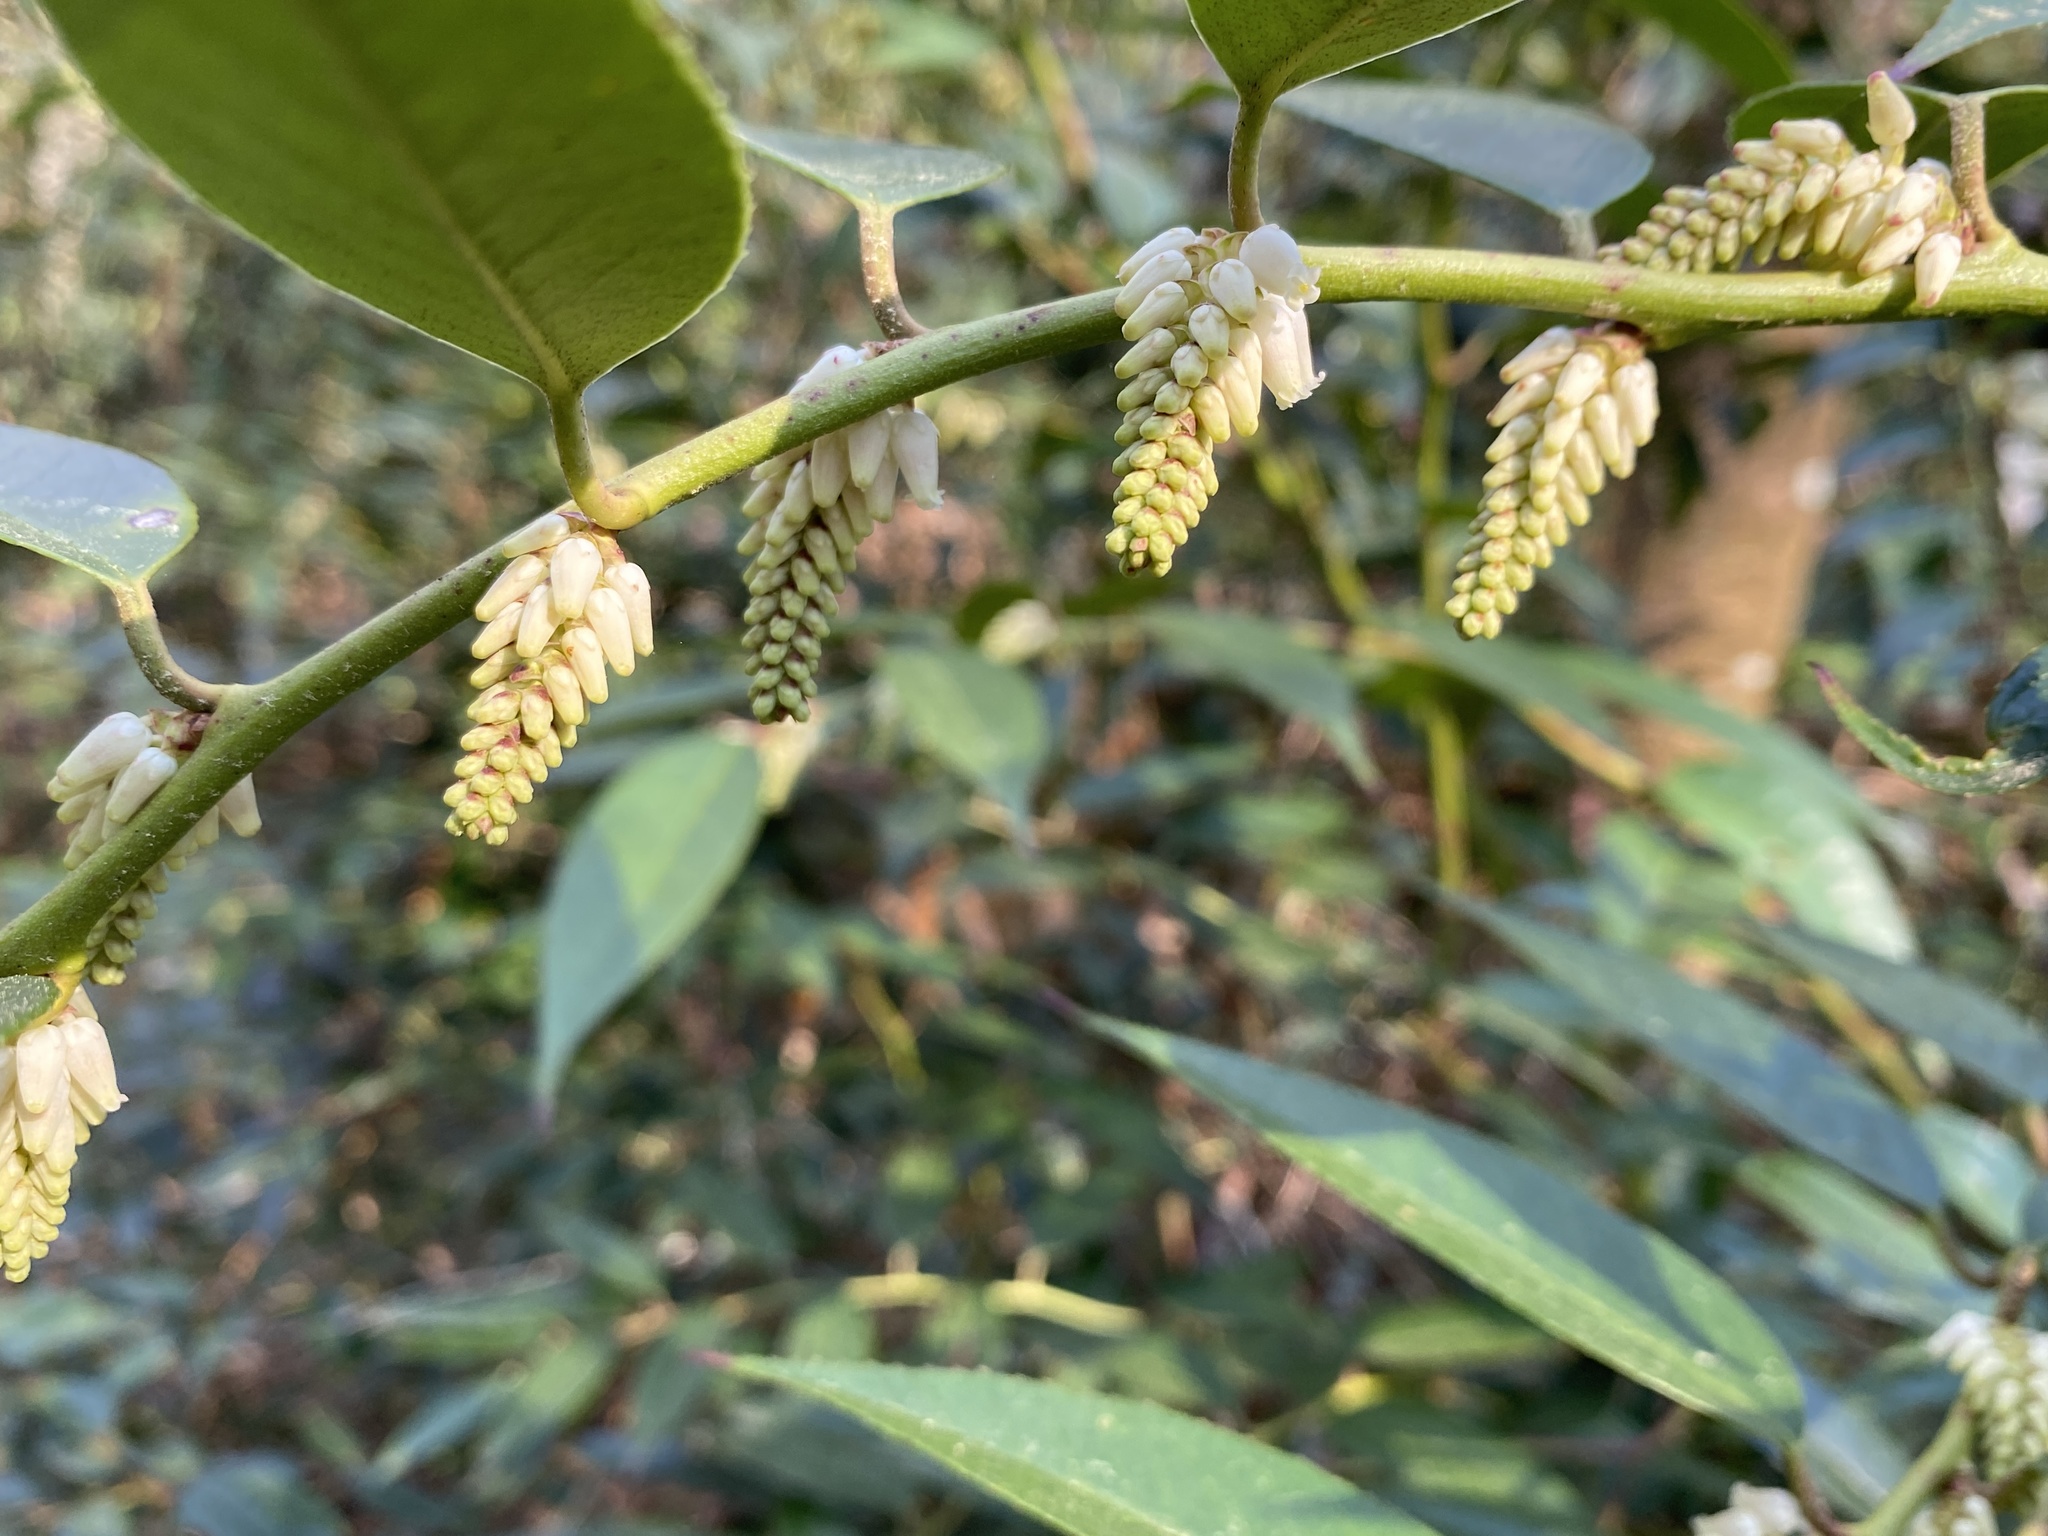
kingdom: Plantae
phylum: Tracheophyta
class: Magnoliopsida
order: Ericales
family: Ericaceae
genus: Leucothoe
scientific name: Leucothoe fontanesiana
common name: Fetterbush
